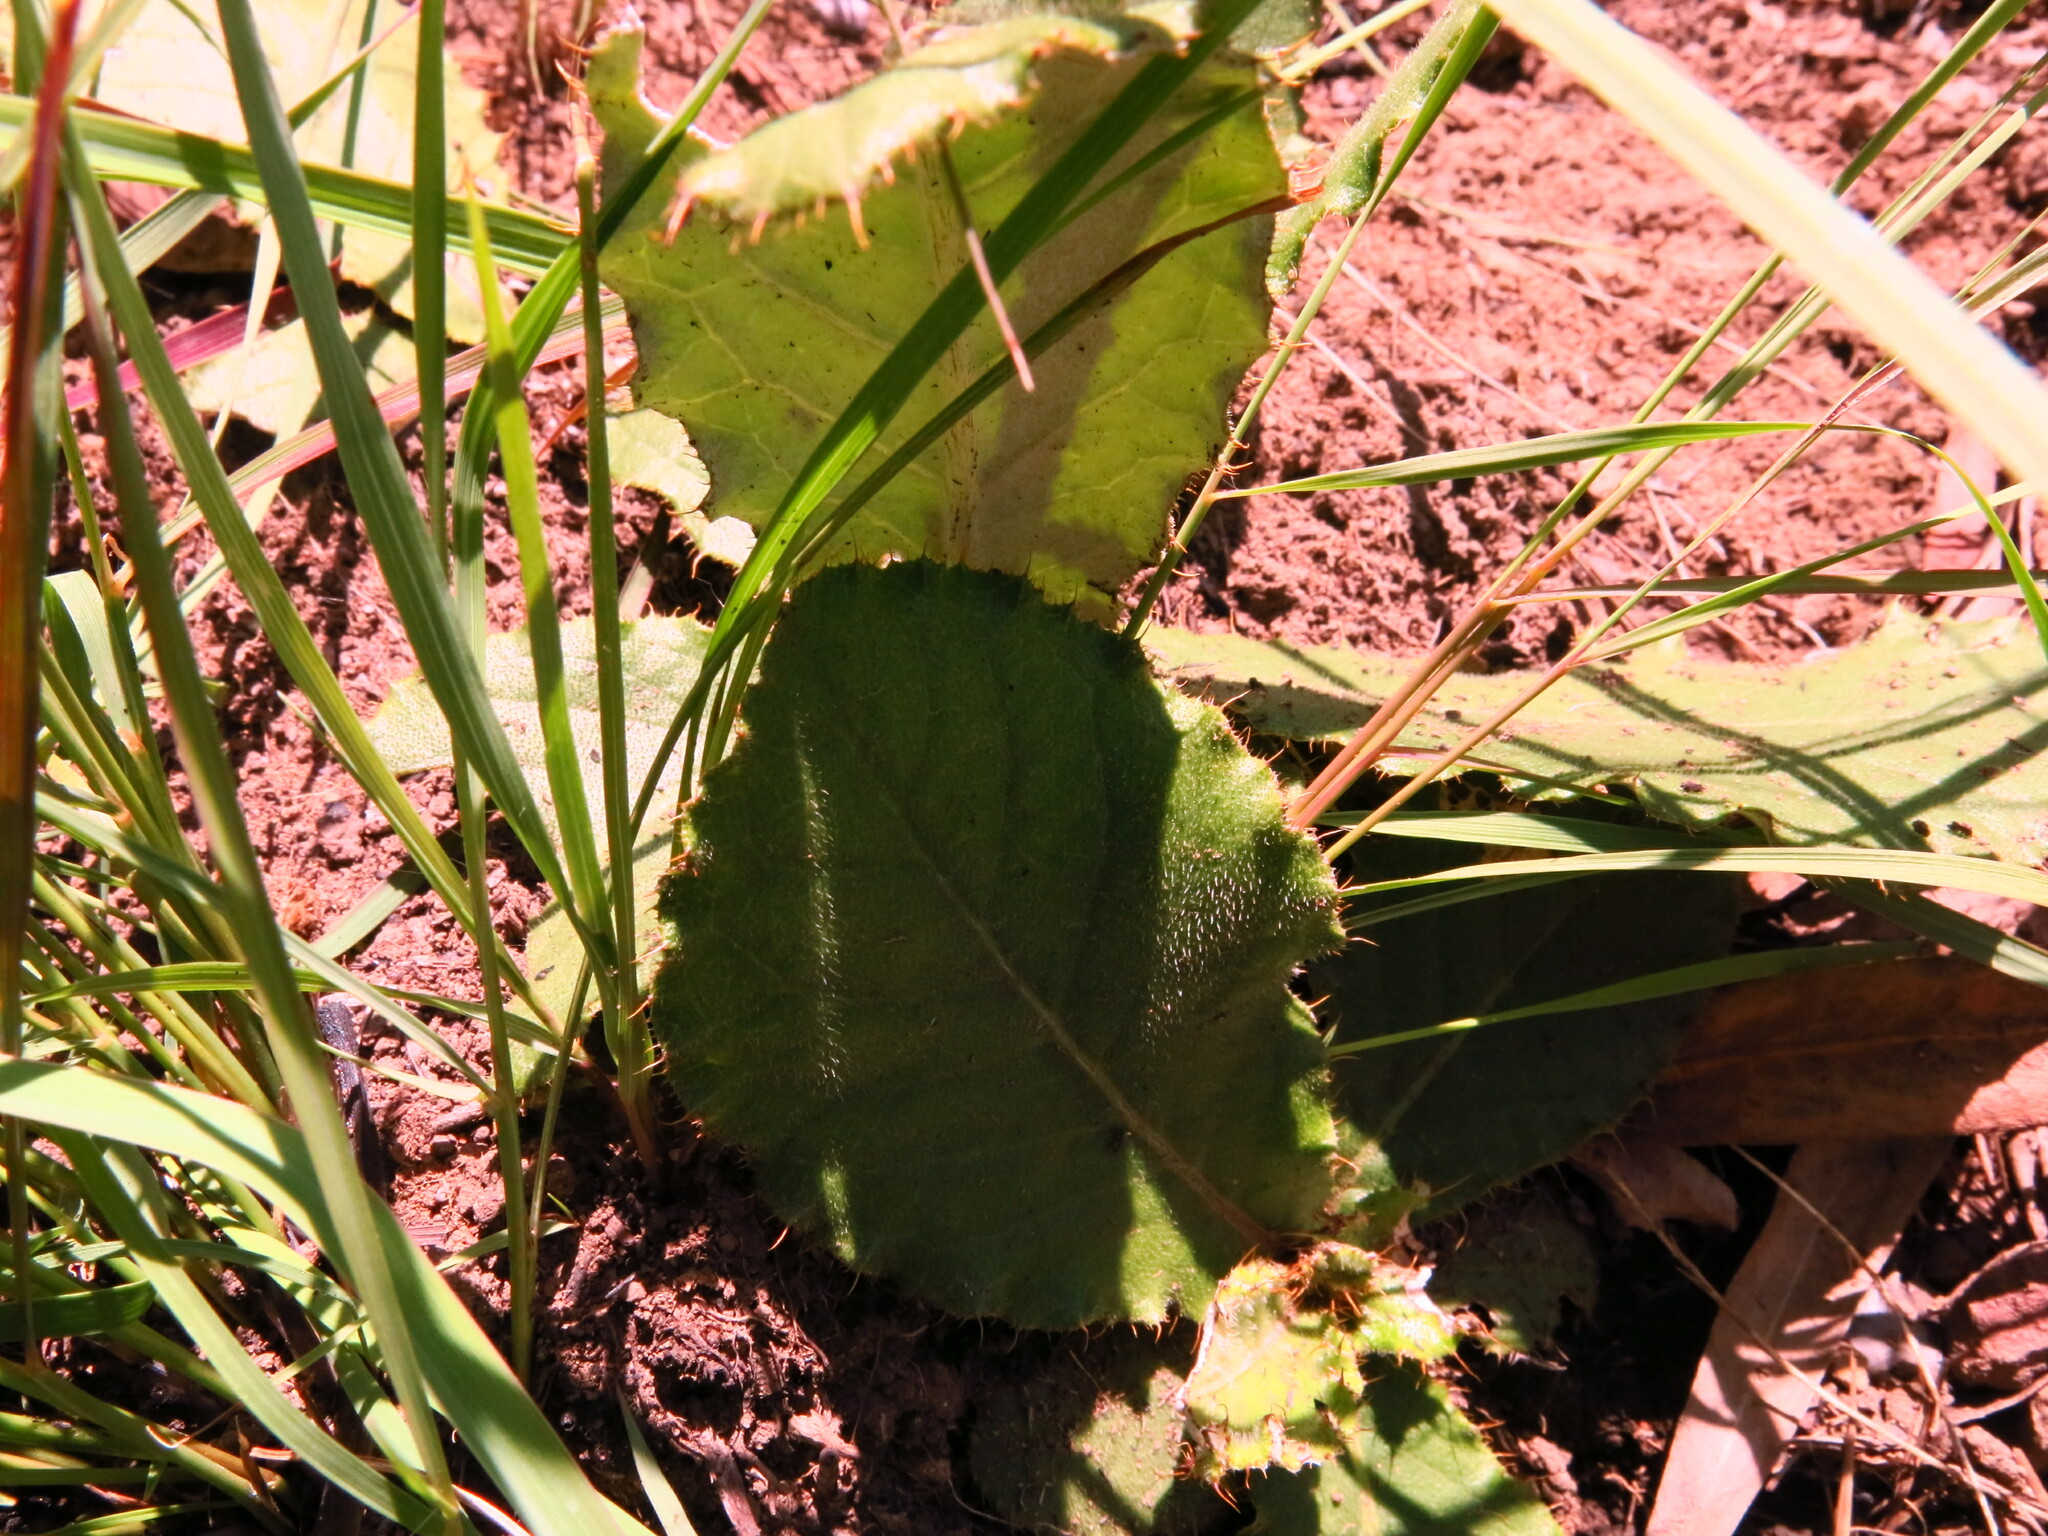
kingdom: Plantae
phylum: Tracheophyta
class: Magnoliopsida
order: Asterales
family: Asteraceae
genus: Berkheya
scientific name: Berkheya rhapontica
